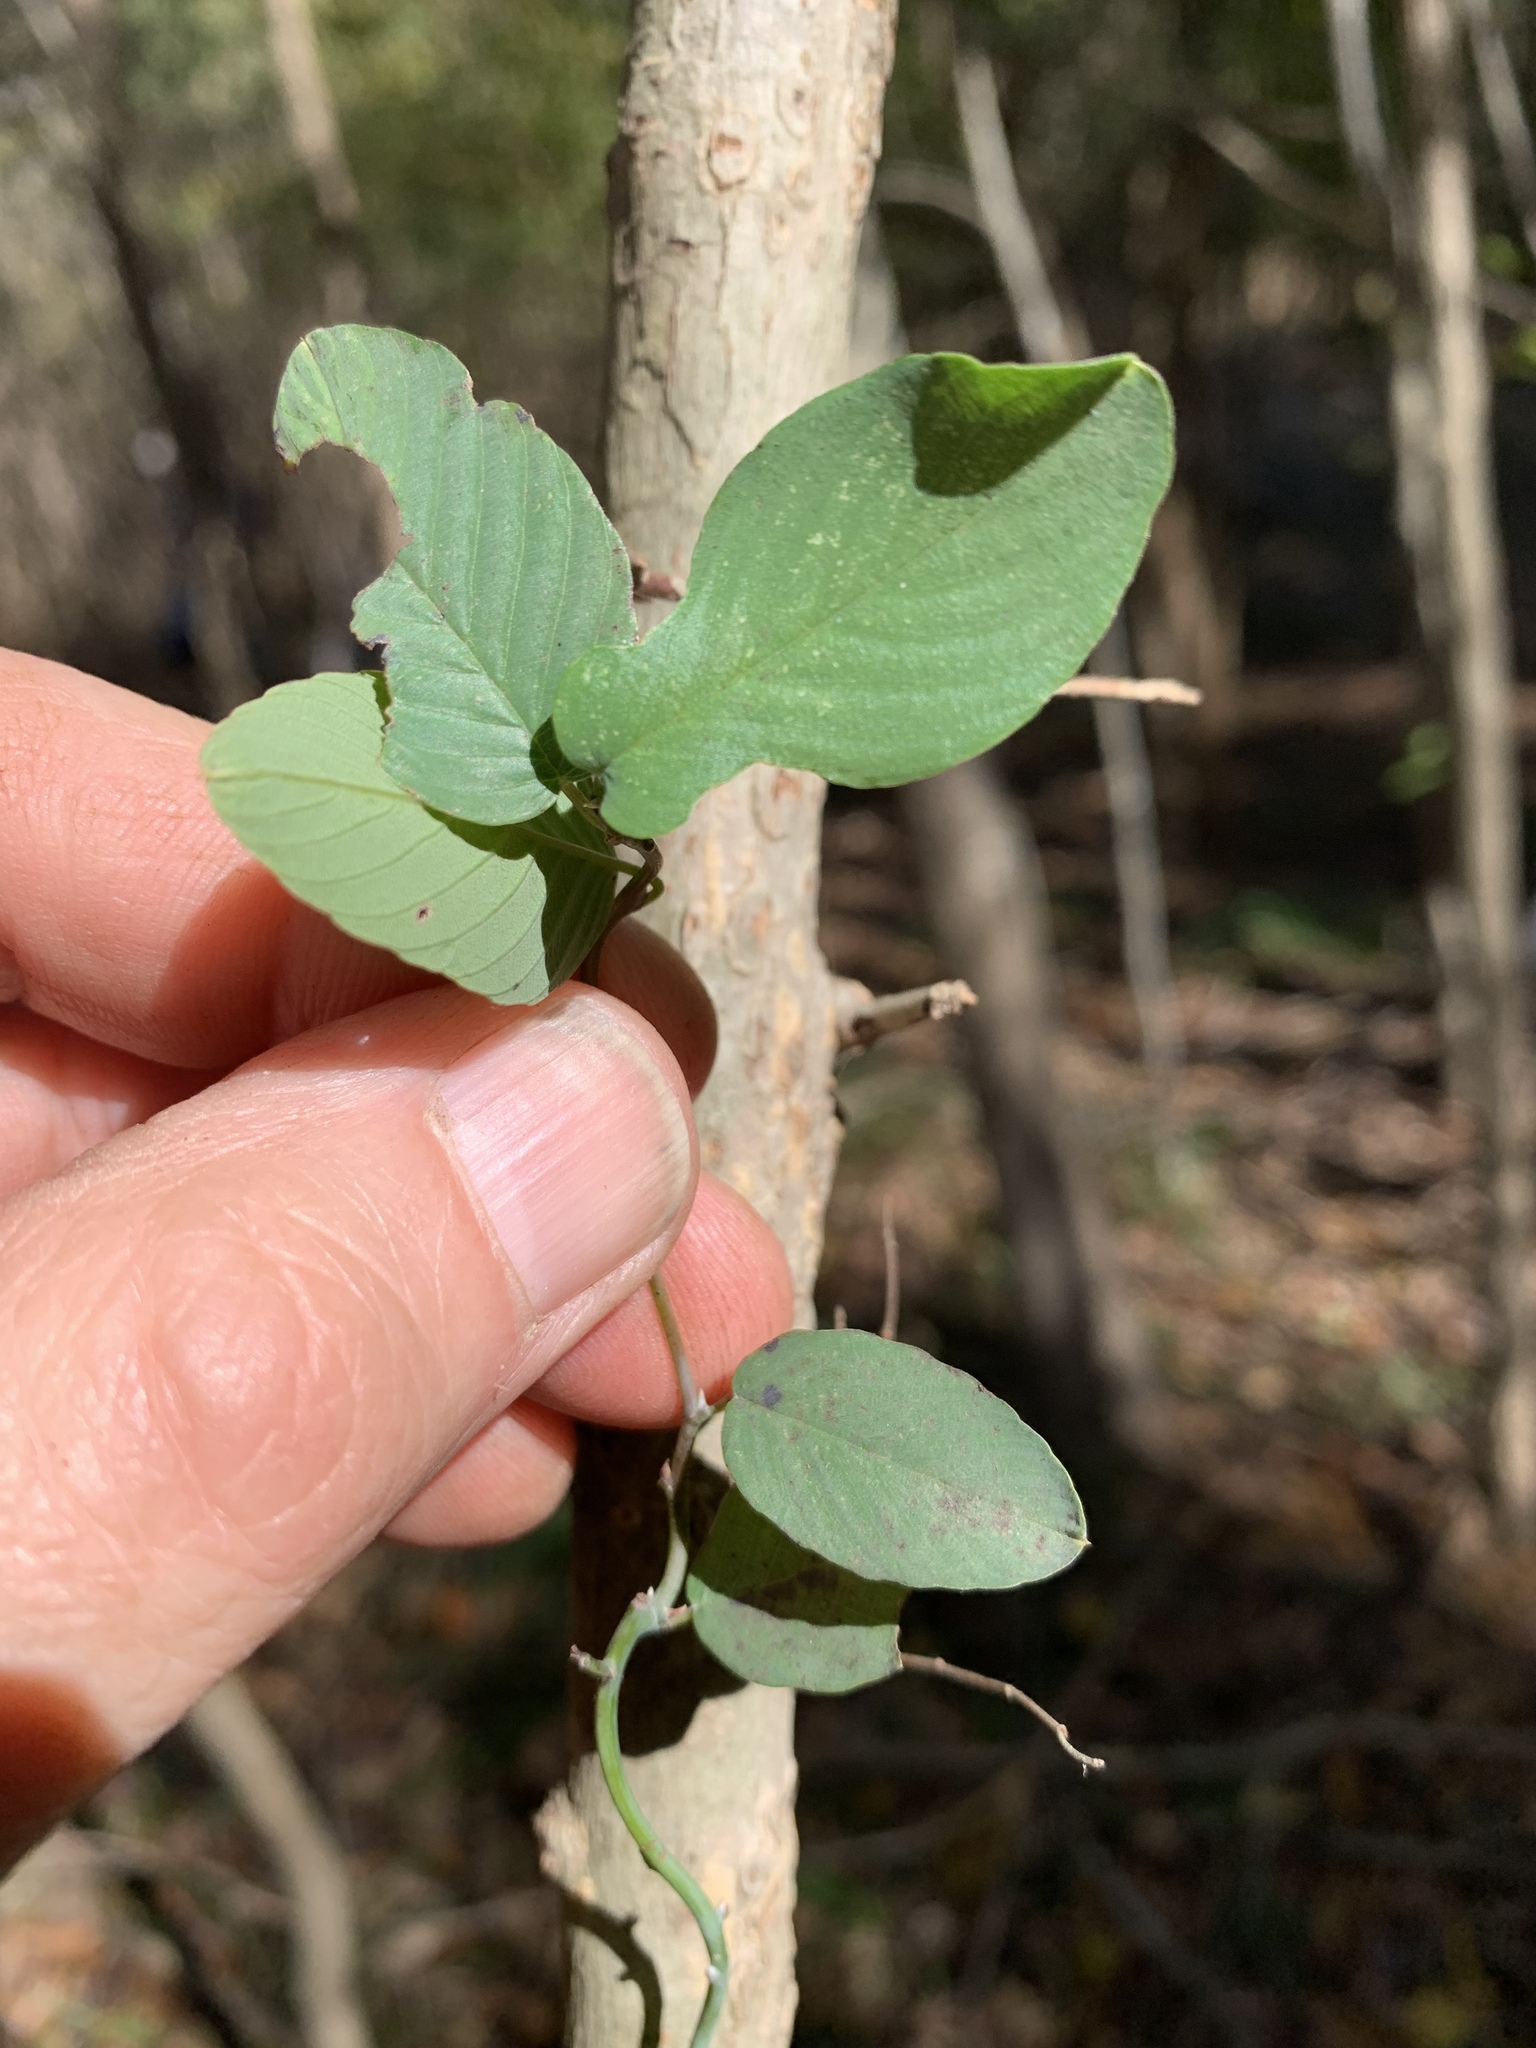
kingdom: Plantae
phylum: Tracheophyta
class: Magnoliopsida
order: Rosales
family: Rhamnaceae
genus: Berchemia
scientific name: Berchemia scandens
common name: Supplejack
